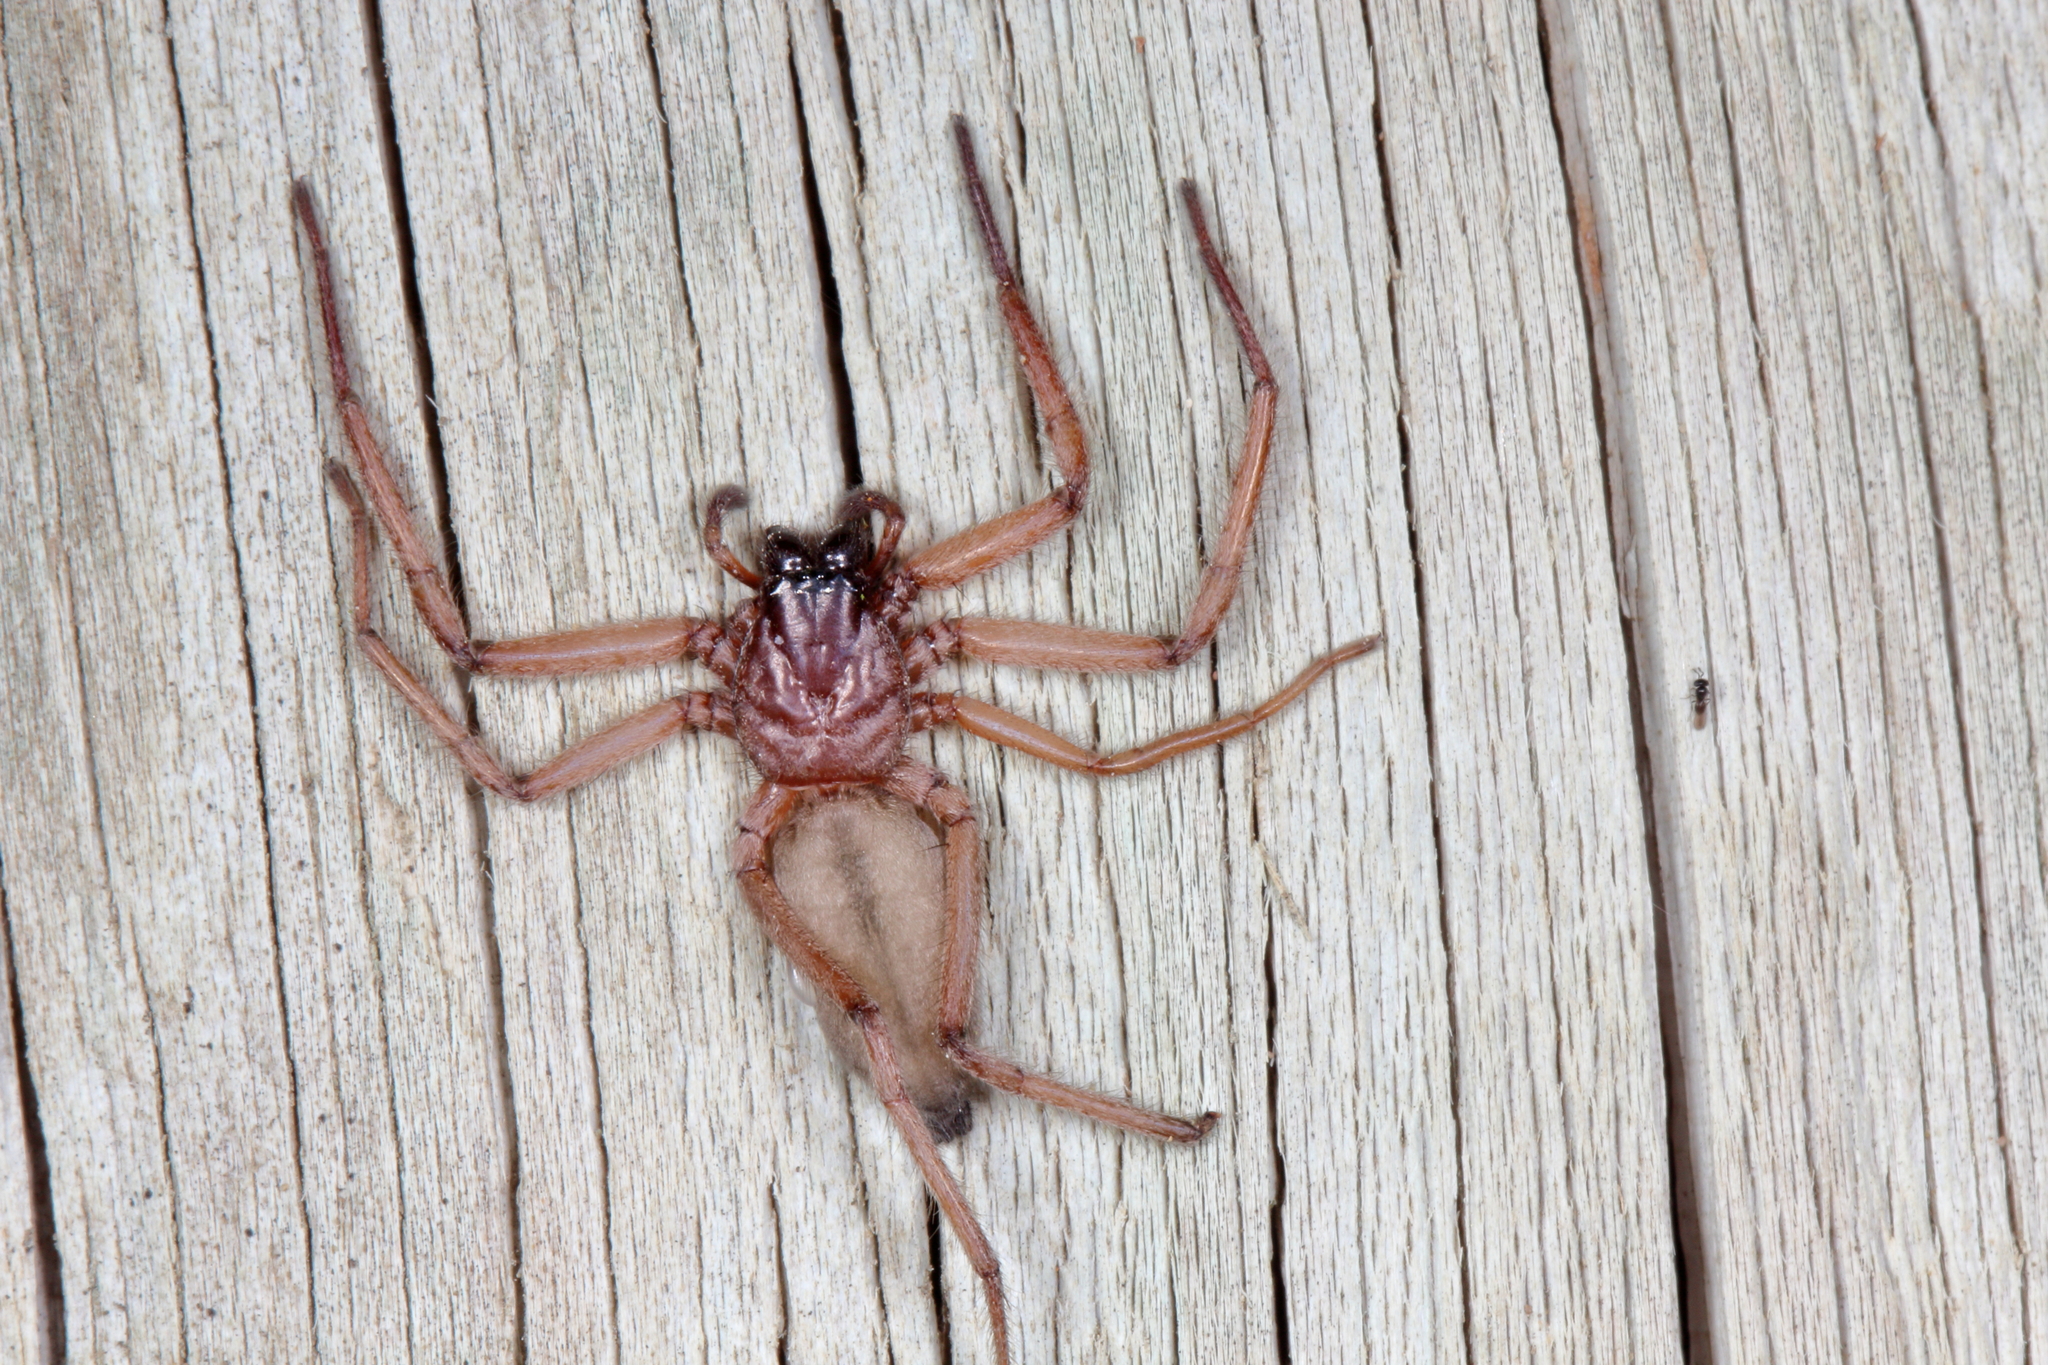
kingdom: Animalia
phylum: Arthropoda
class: Arachnida
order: Araneae
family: Trochanteriidae
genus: Hemicloea
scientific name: Hemicloea rogenhoferi
